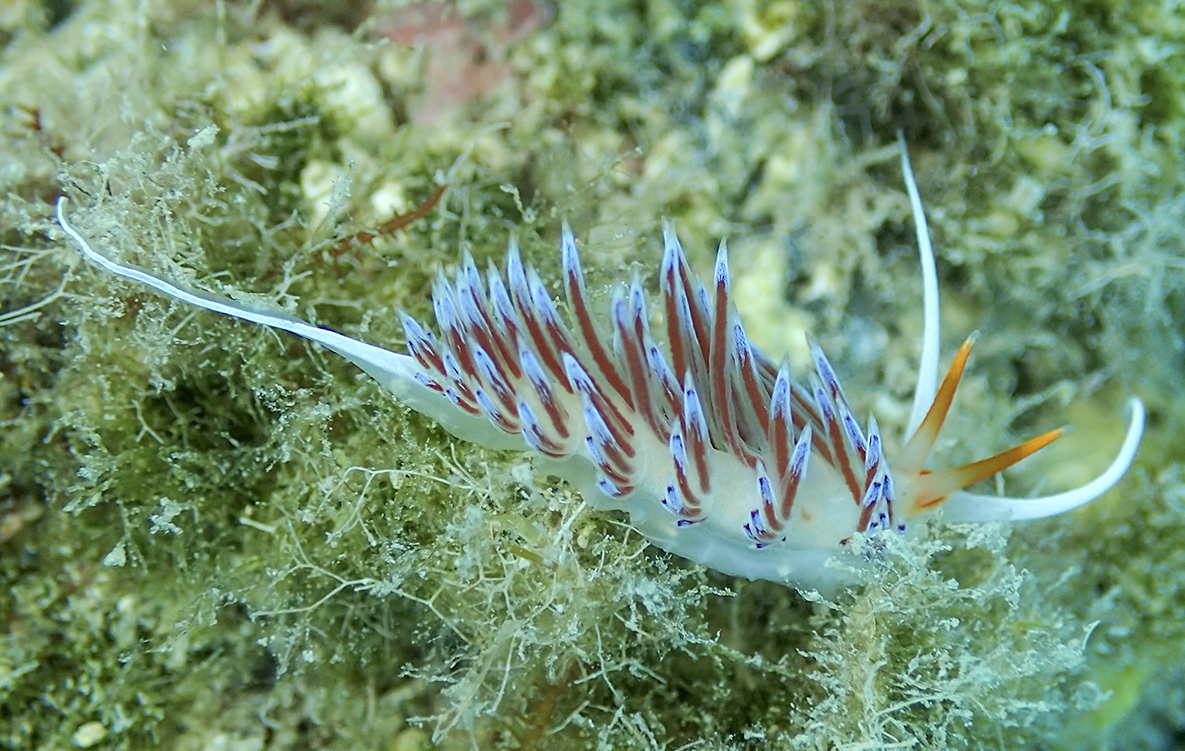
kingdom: Animalia
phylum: Mollusca
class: Gastropoda
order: Nudibranchia
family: Facelinidae
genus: Cratena
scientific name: Cratena peregrina
